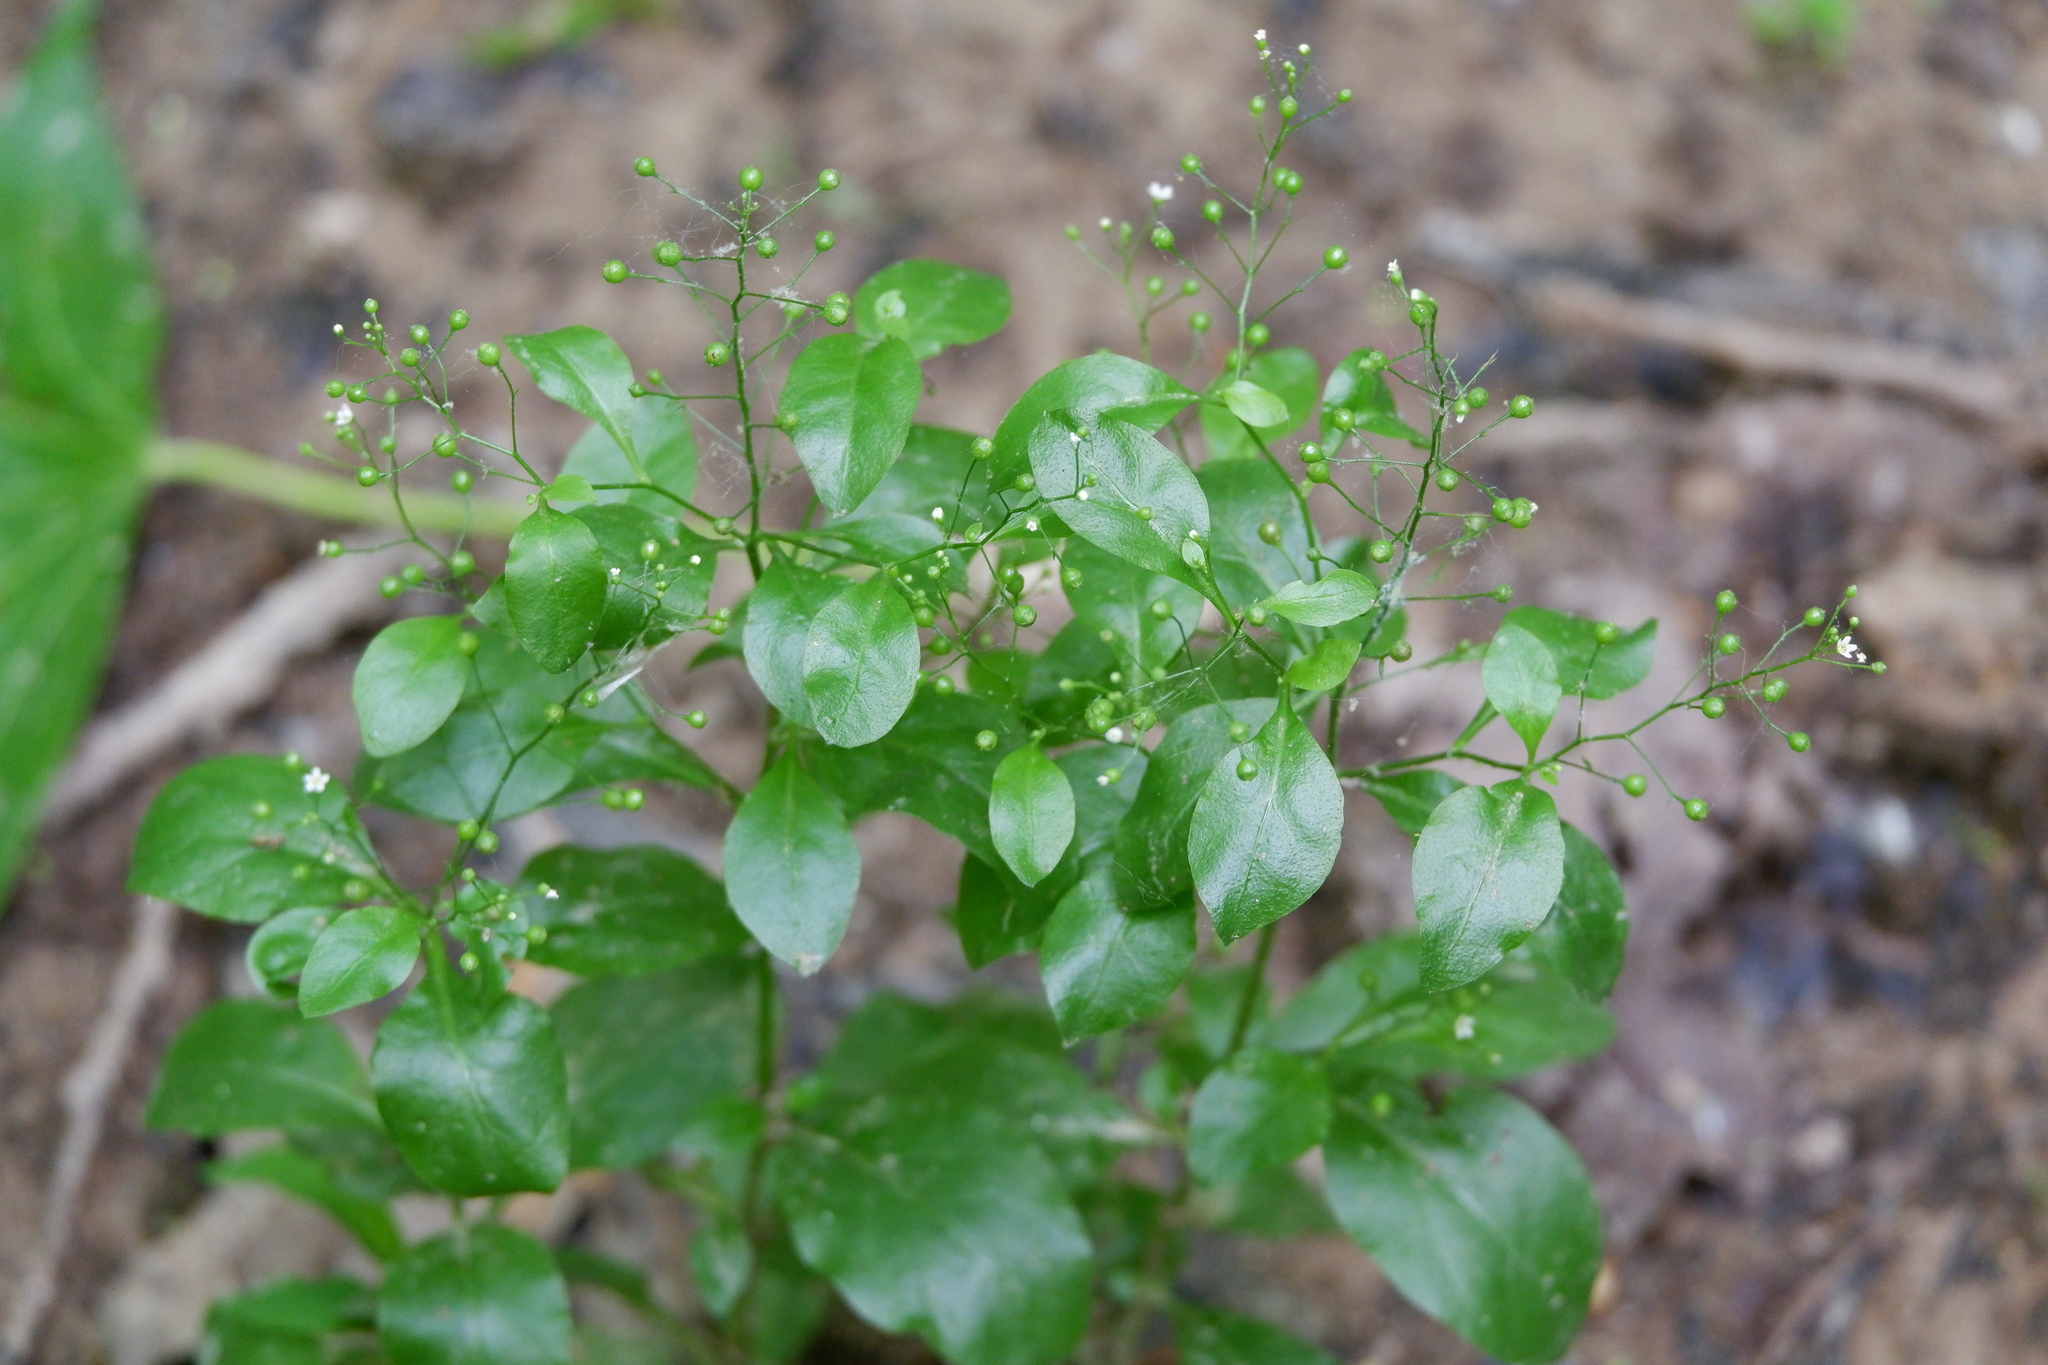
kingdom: Plantae
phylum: Tracheophyta
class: Magnoliopsida
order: Ericales
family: Primulaceae
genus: Samolus
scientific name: Samolus parviflorus
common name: False water pimpernel
